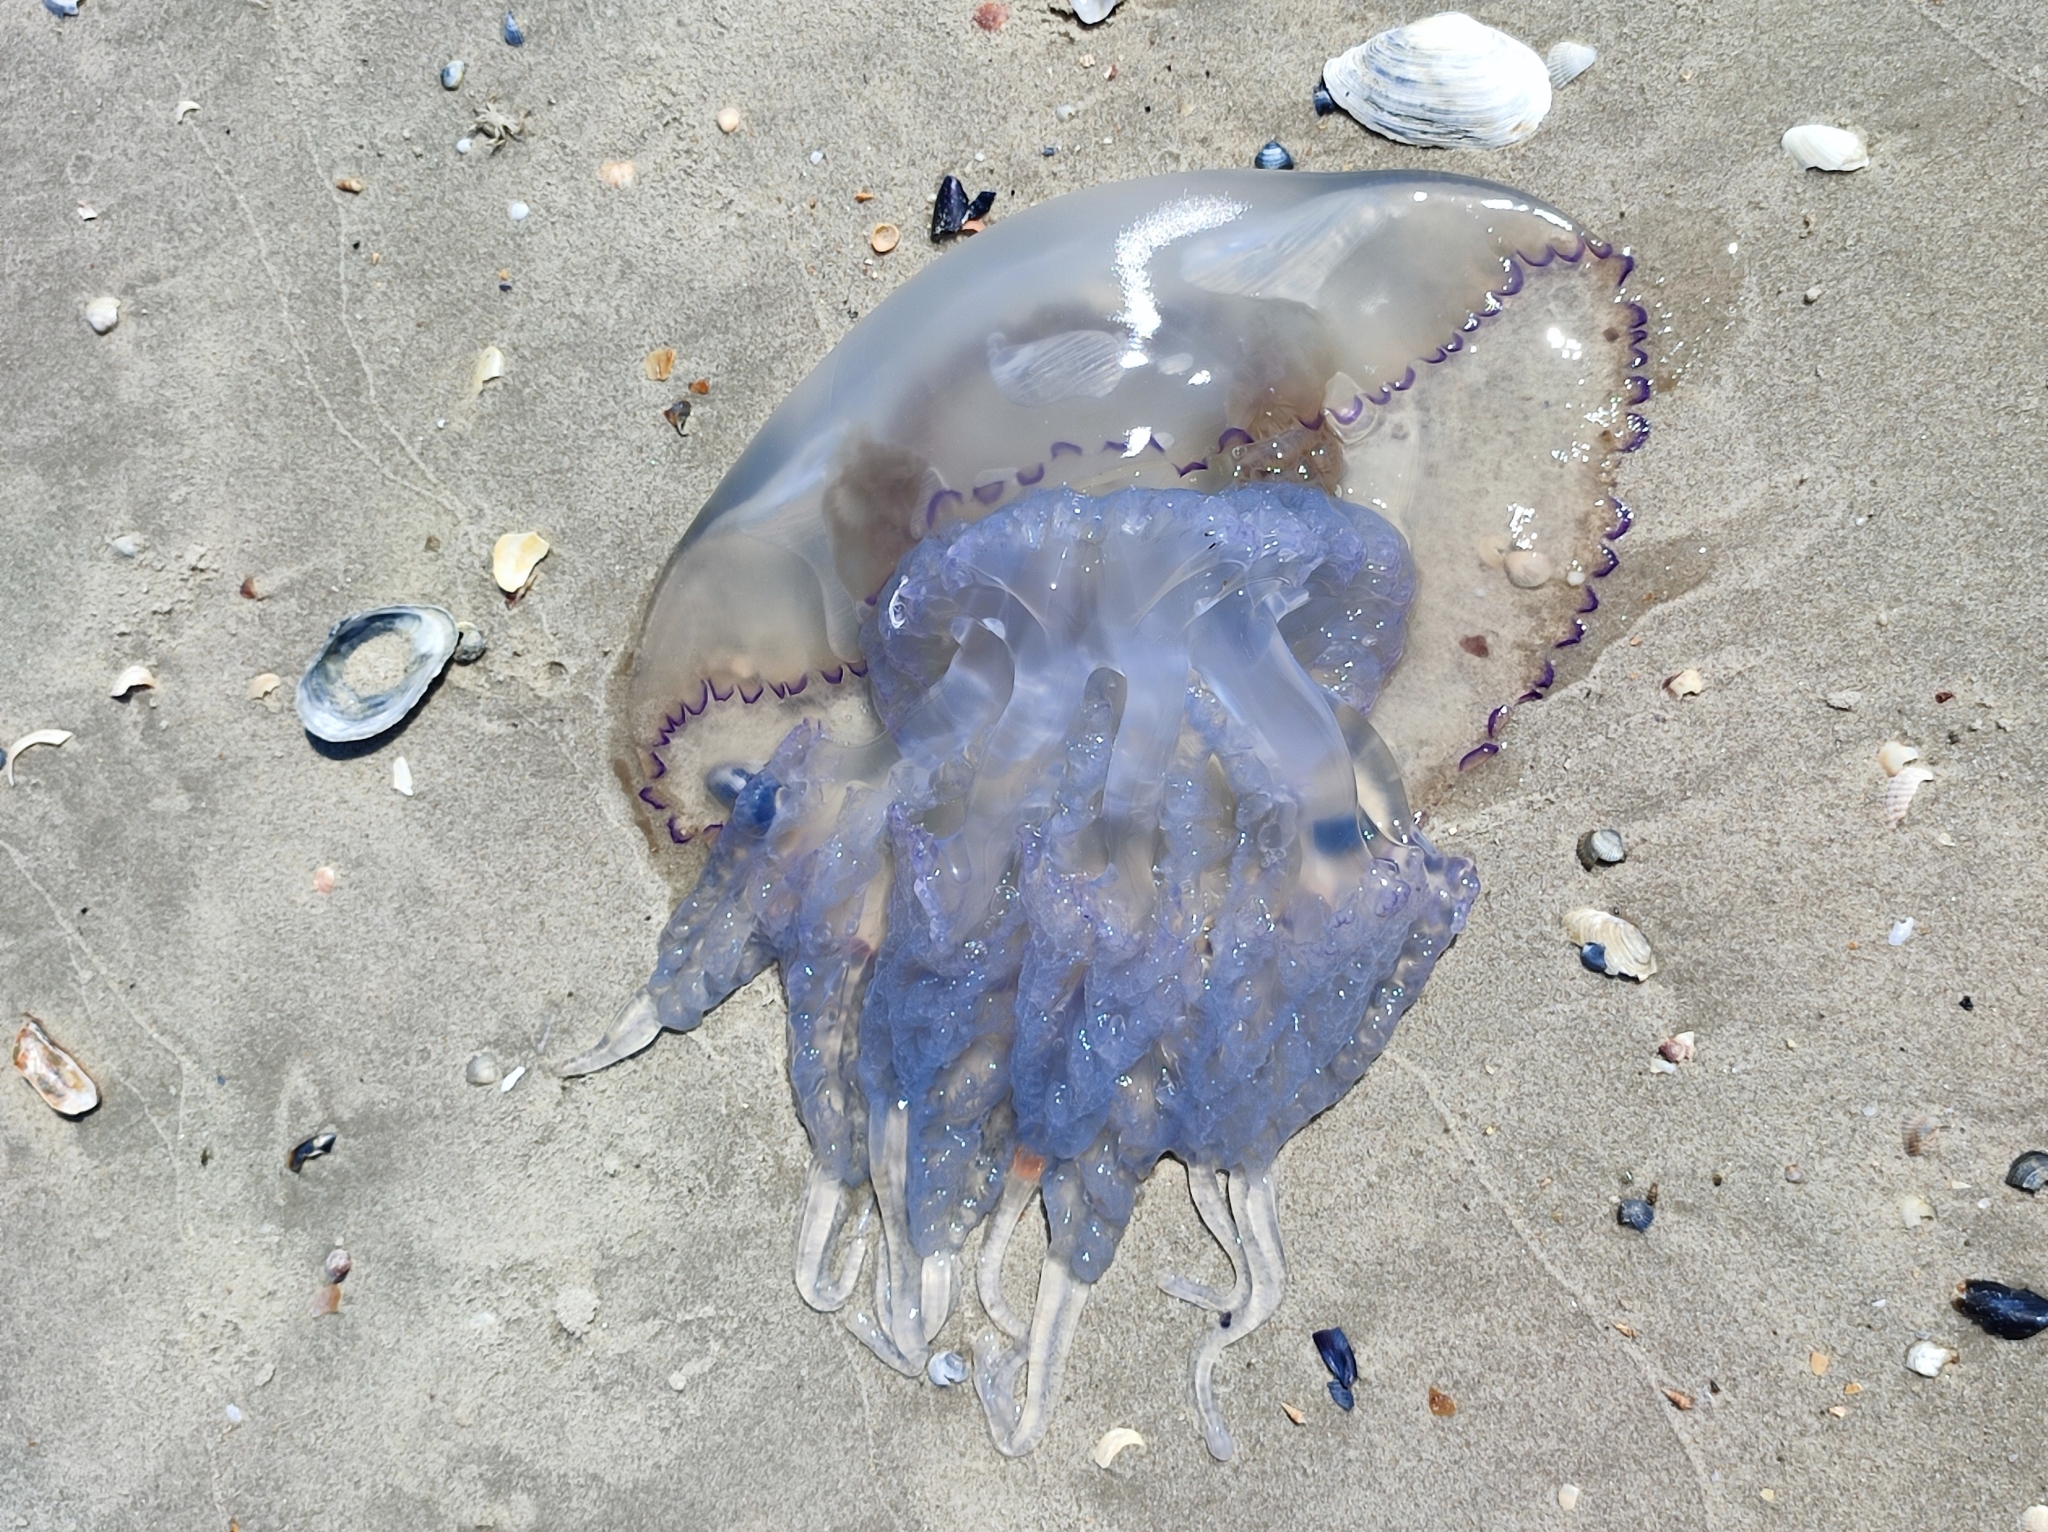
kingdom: Animalia
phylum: Cnidaria
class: Scyphozoa
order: Rhizostomeae
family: Rhizostomatidae
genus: Rhizostoma
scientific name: Rhizostoma pulmo
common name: Barrel jellyfish
